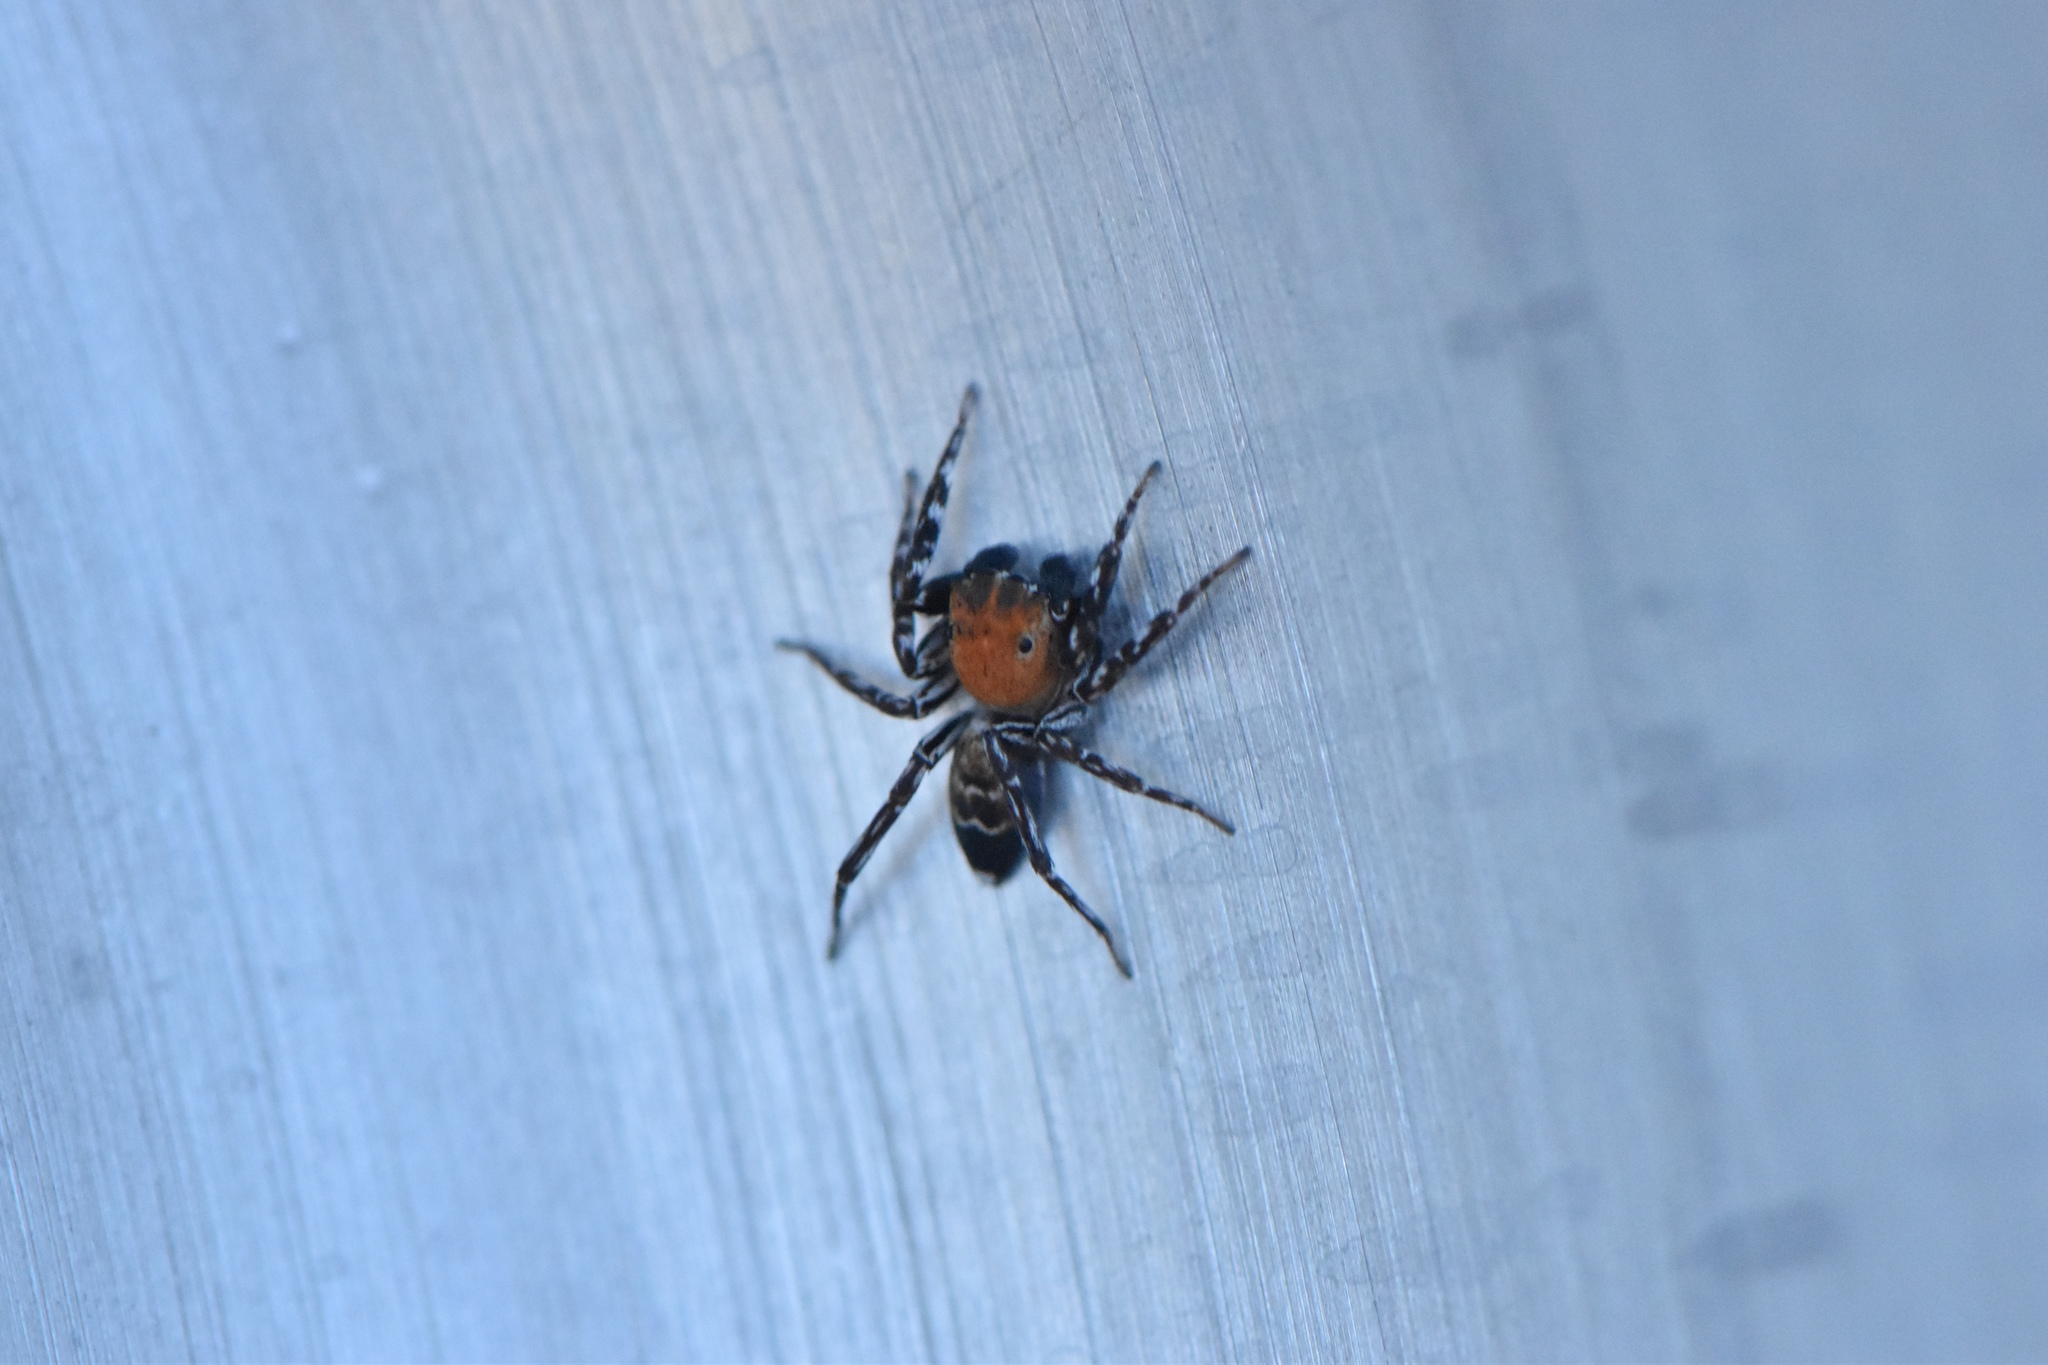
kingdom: Animalia
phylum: Arthropoda
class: Arachnida
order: Araneae
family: Salticidae
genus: Cyrba
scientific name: Cyrba algerina
